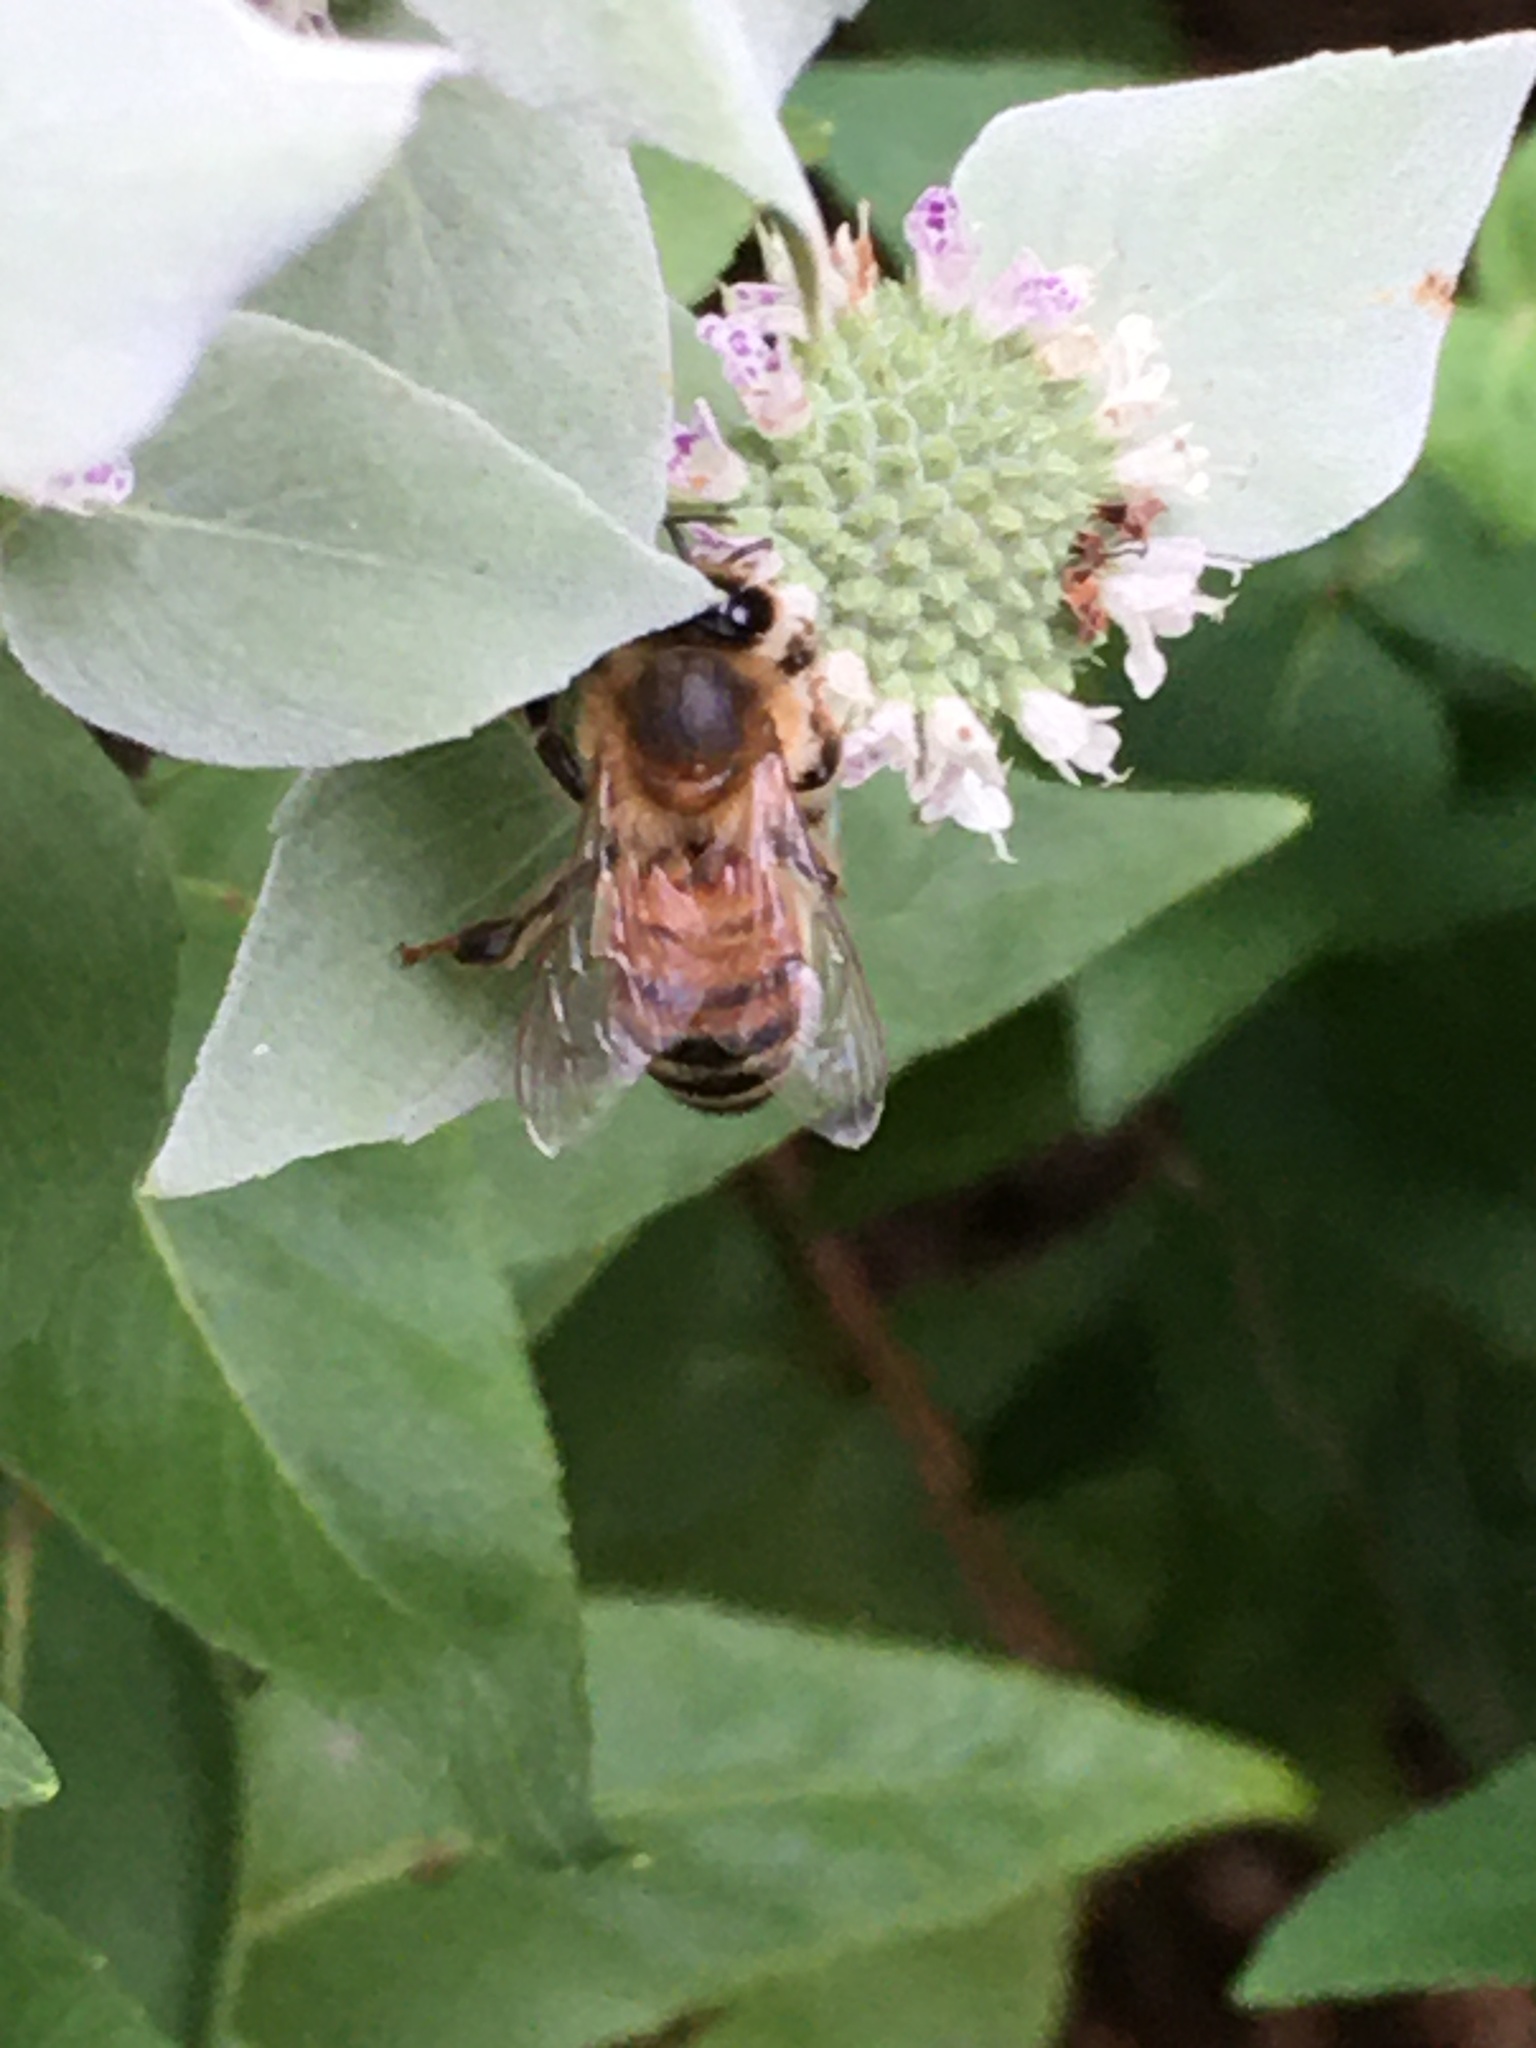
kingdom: Animalia
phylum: Arthropoda
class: Insecta
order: Hymenoptera
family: Apidae
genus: Apis
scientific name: Apis mellifera
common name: Honey bee
